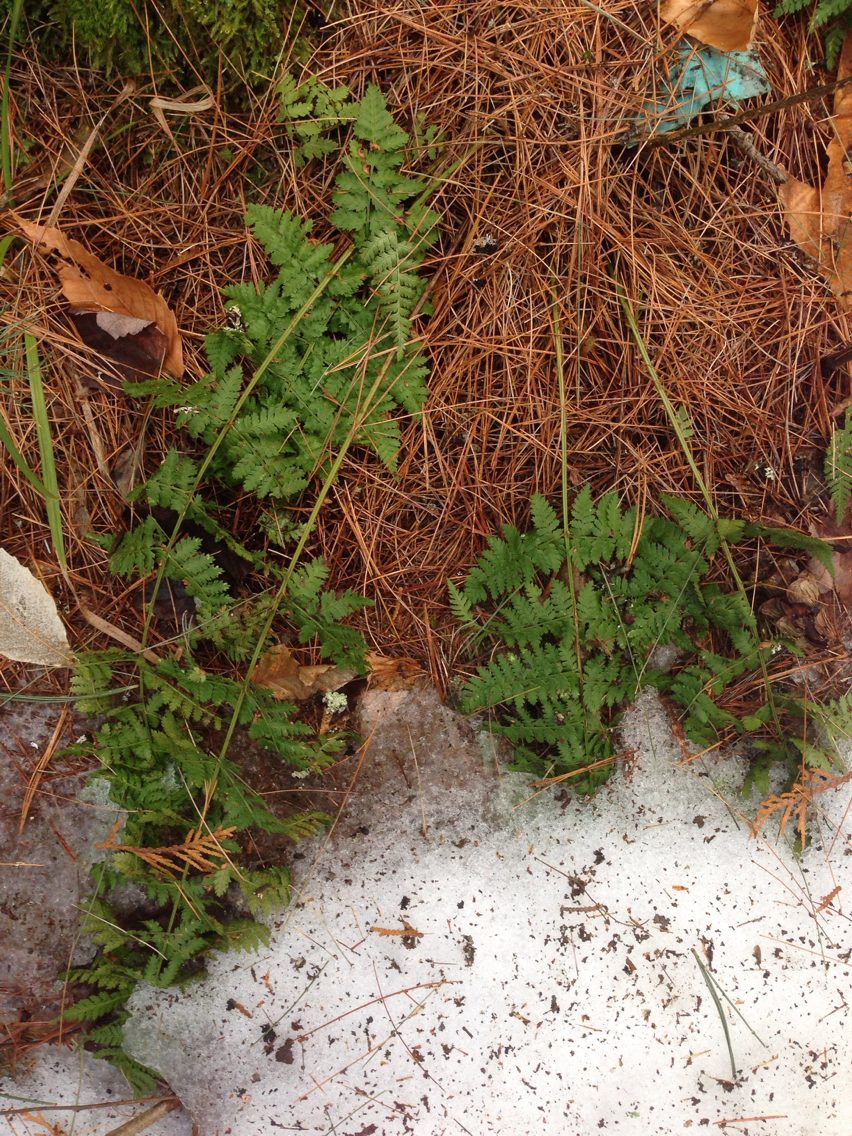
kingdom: Plantae
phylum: Tracheophyta
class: Polypodiopsida
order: Polypodiales
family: Dryopteridaceae
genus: Dryopteris
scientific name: Dryopteris intermedia
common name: Evergreen wood fern
